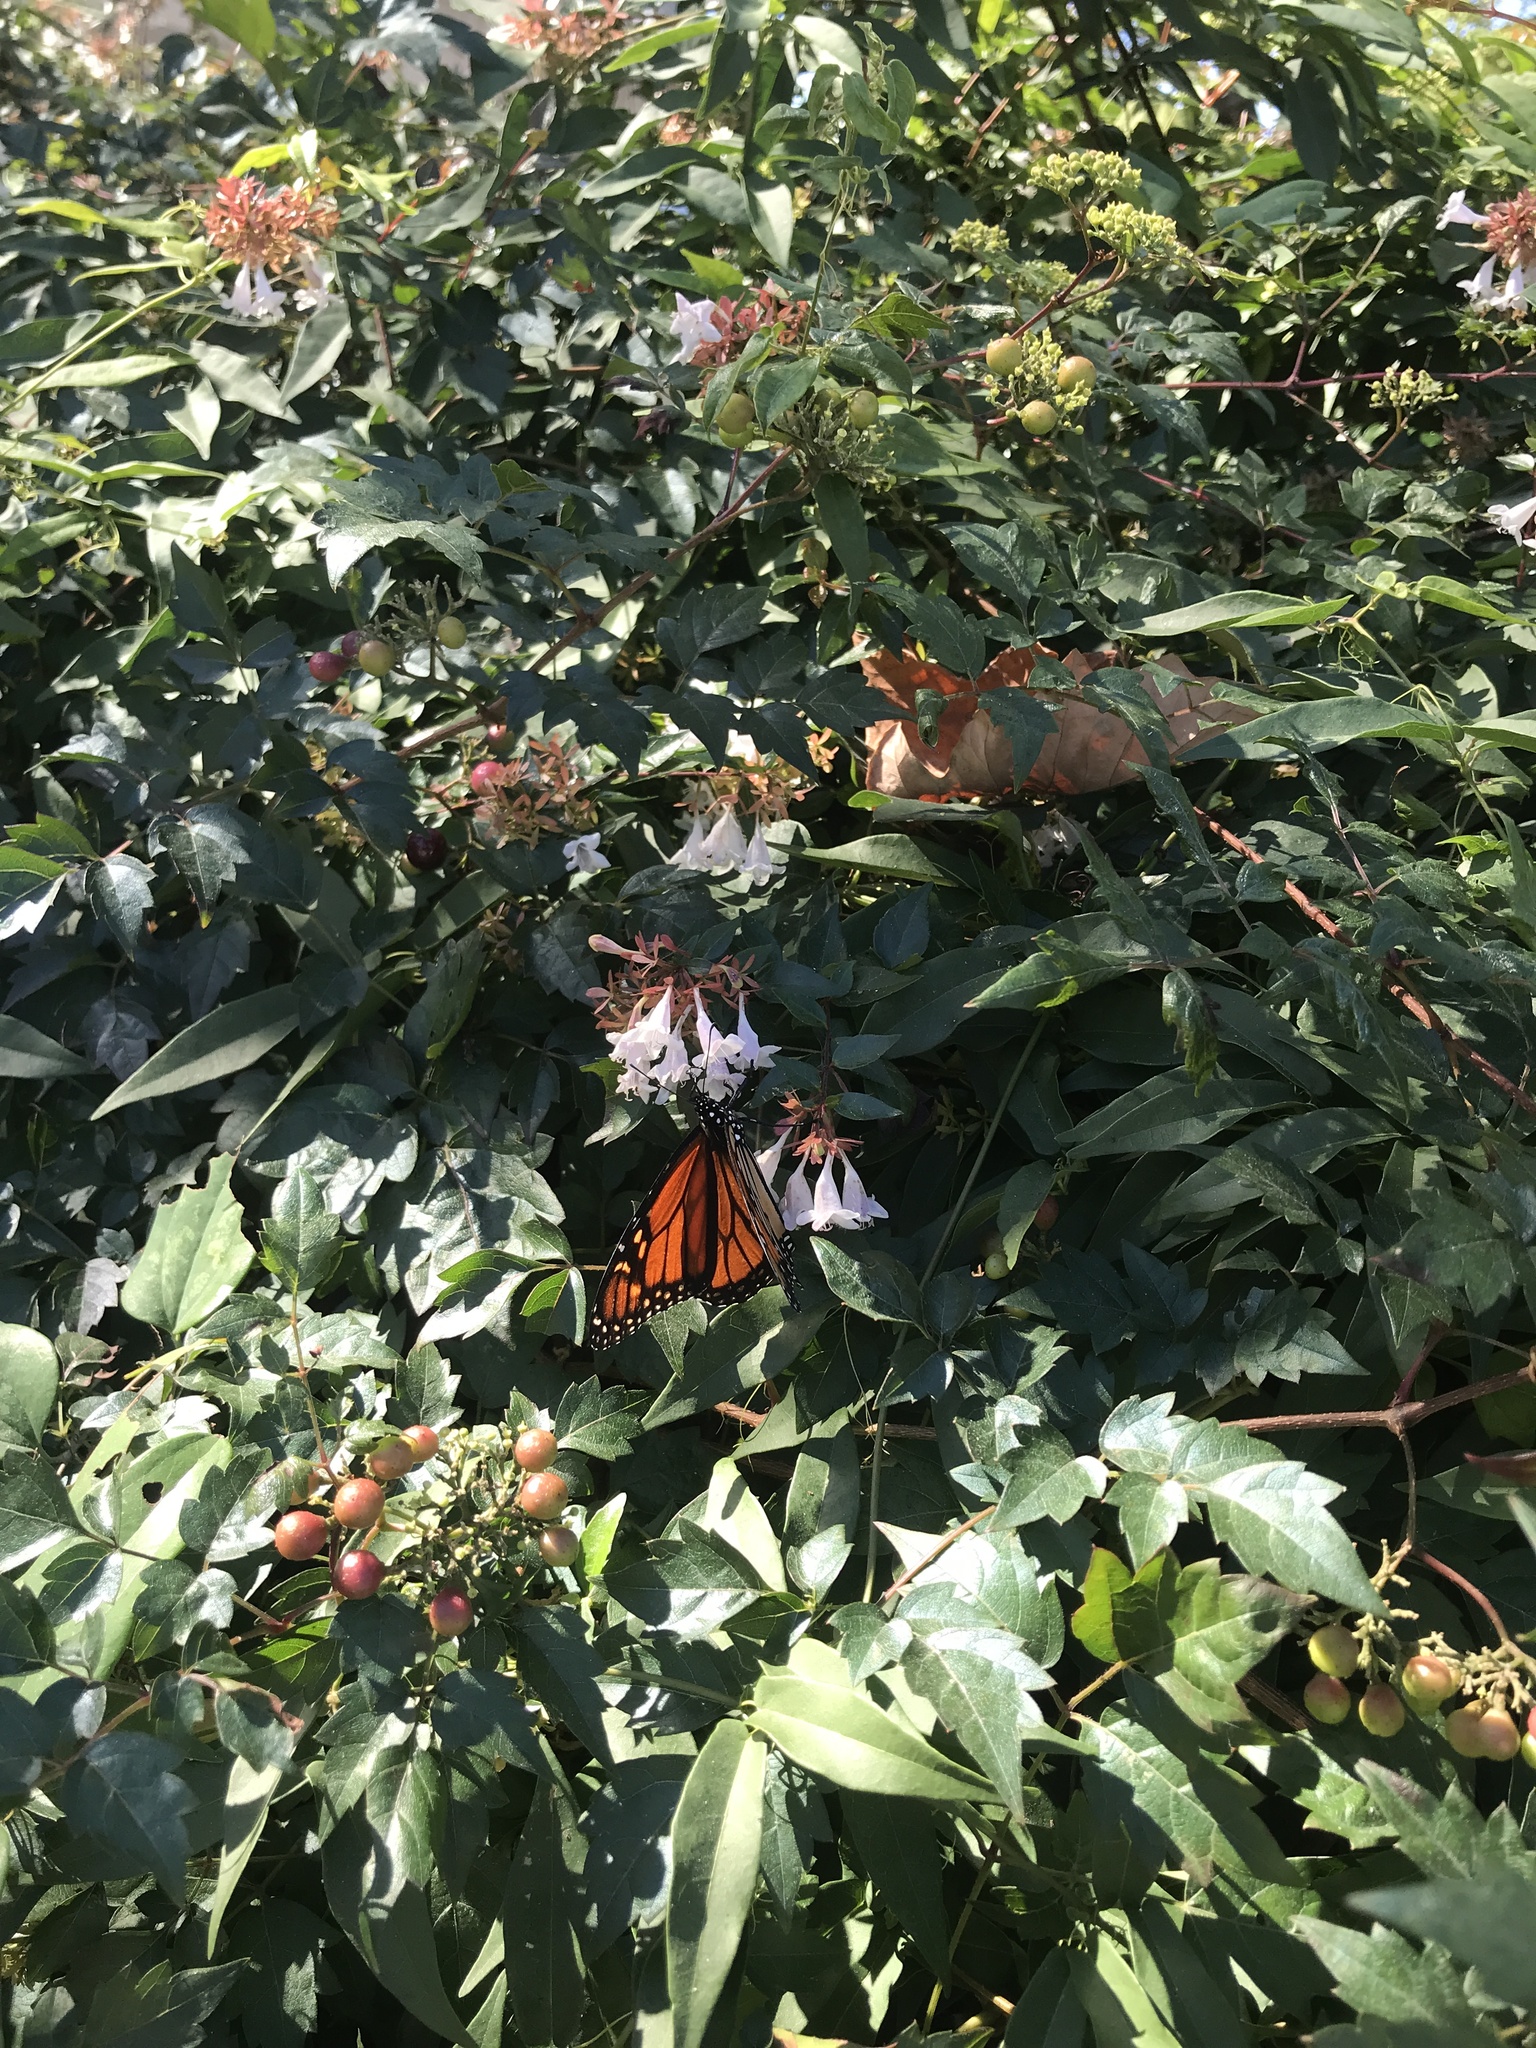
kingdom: Animalia
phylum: Arthropoda
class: Insecta
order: Lepidoptera
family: Nymphalidae
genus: Danaus
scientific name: Danaus plexippus
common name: Monarch
